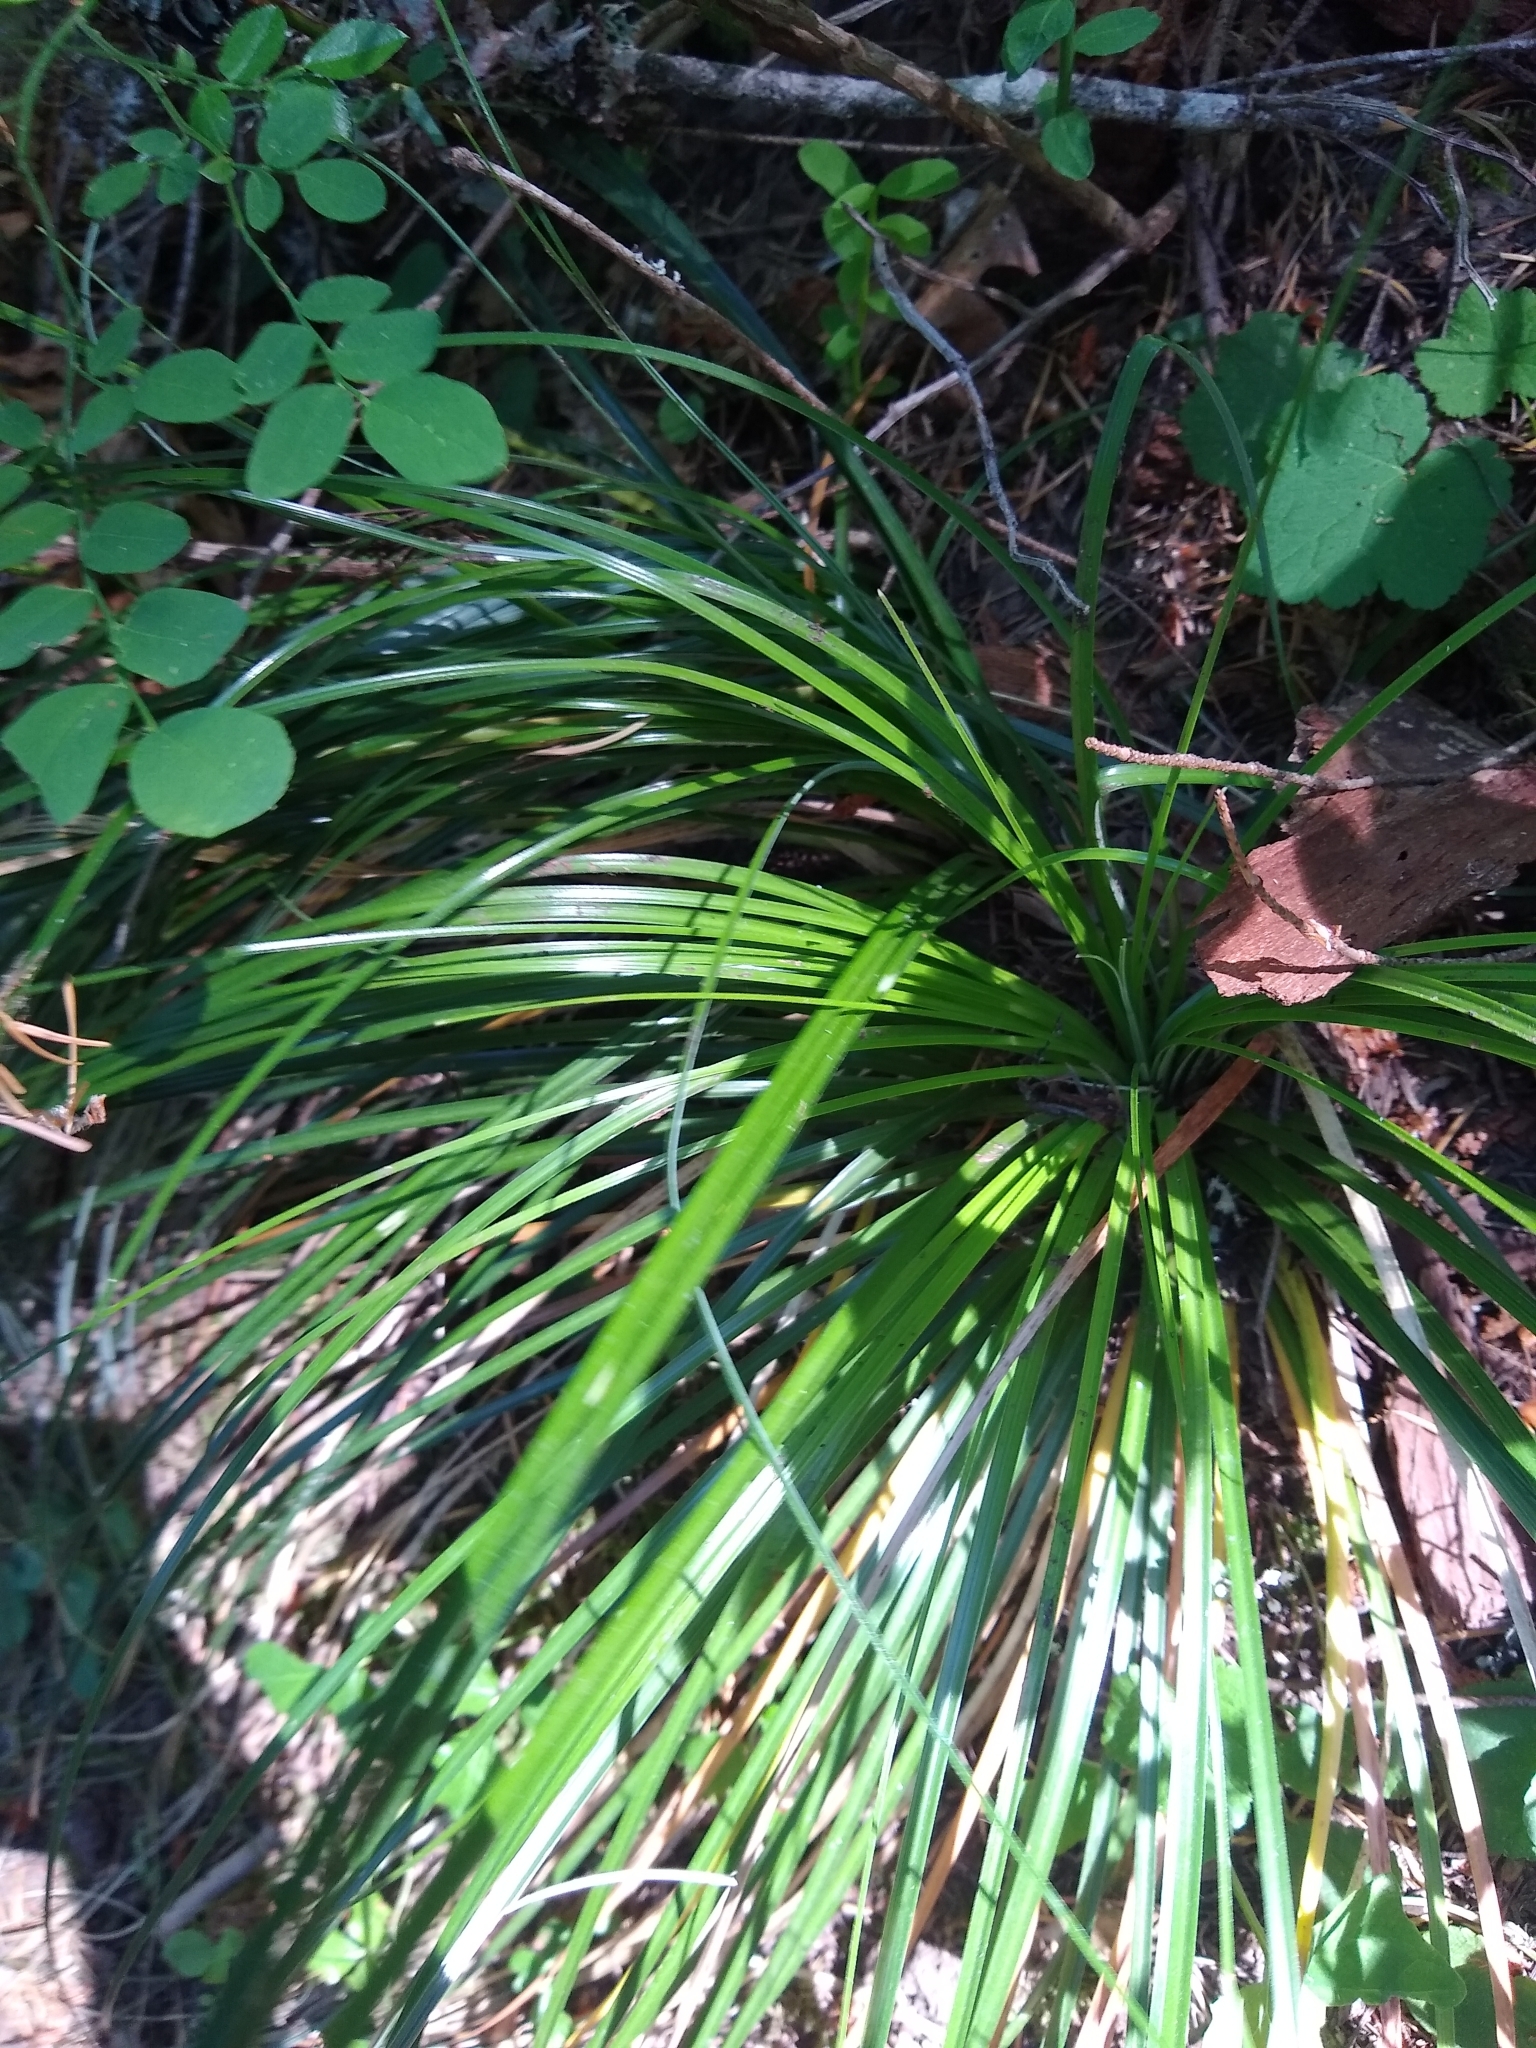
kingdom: Plantae
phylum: Tracheophyta
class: Liliopsida
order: Liliales
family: Melanthiaceae
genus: Xerophyllum
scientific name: Xerophyllum tenax
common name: Bear-grass
